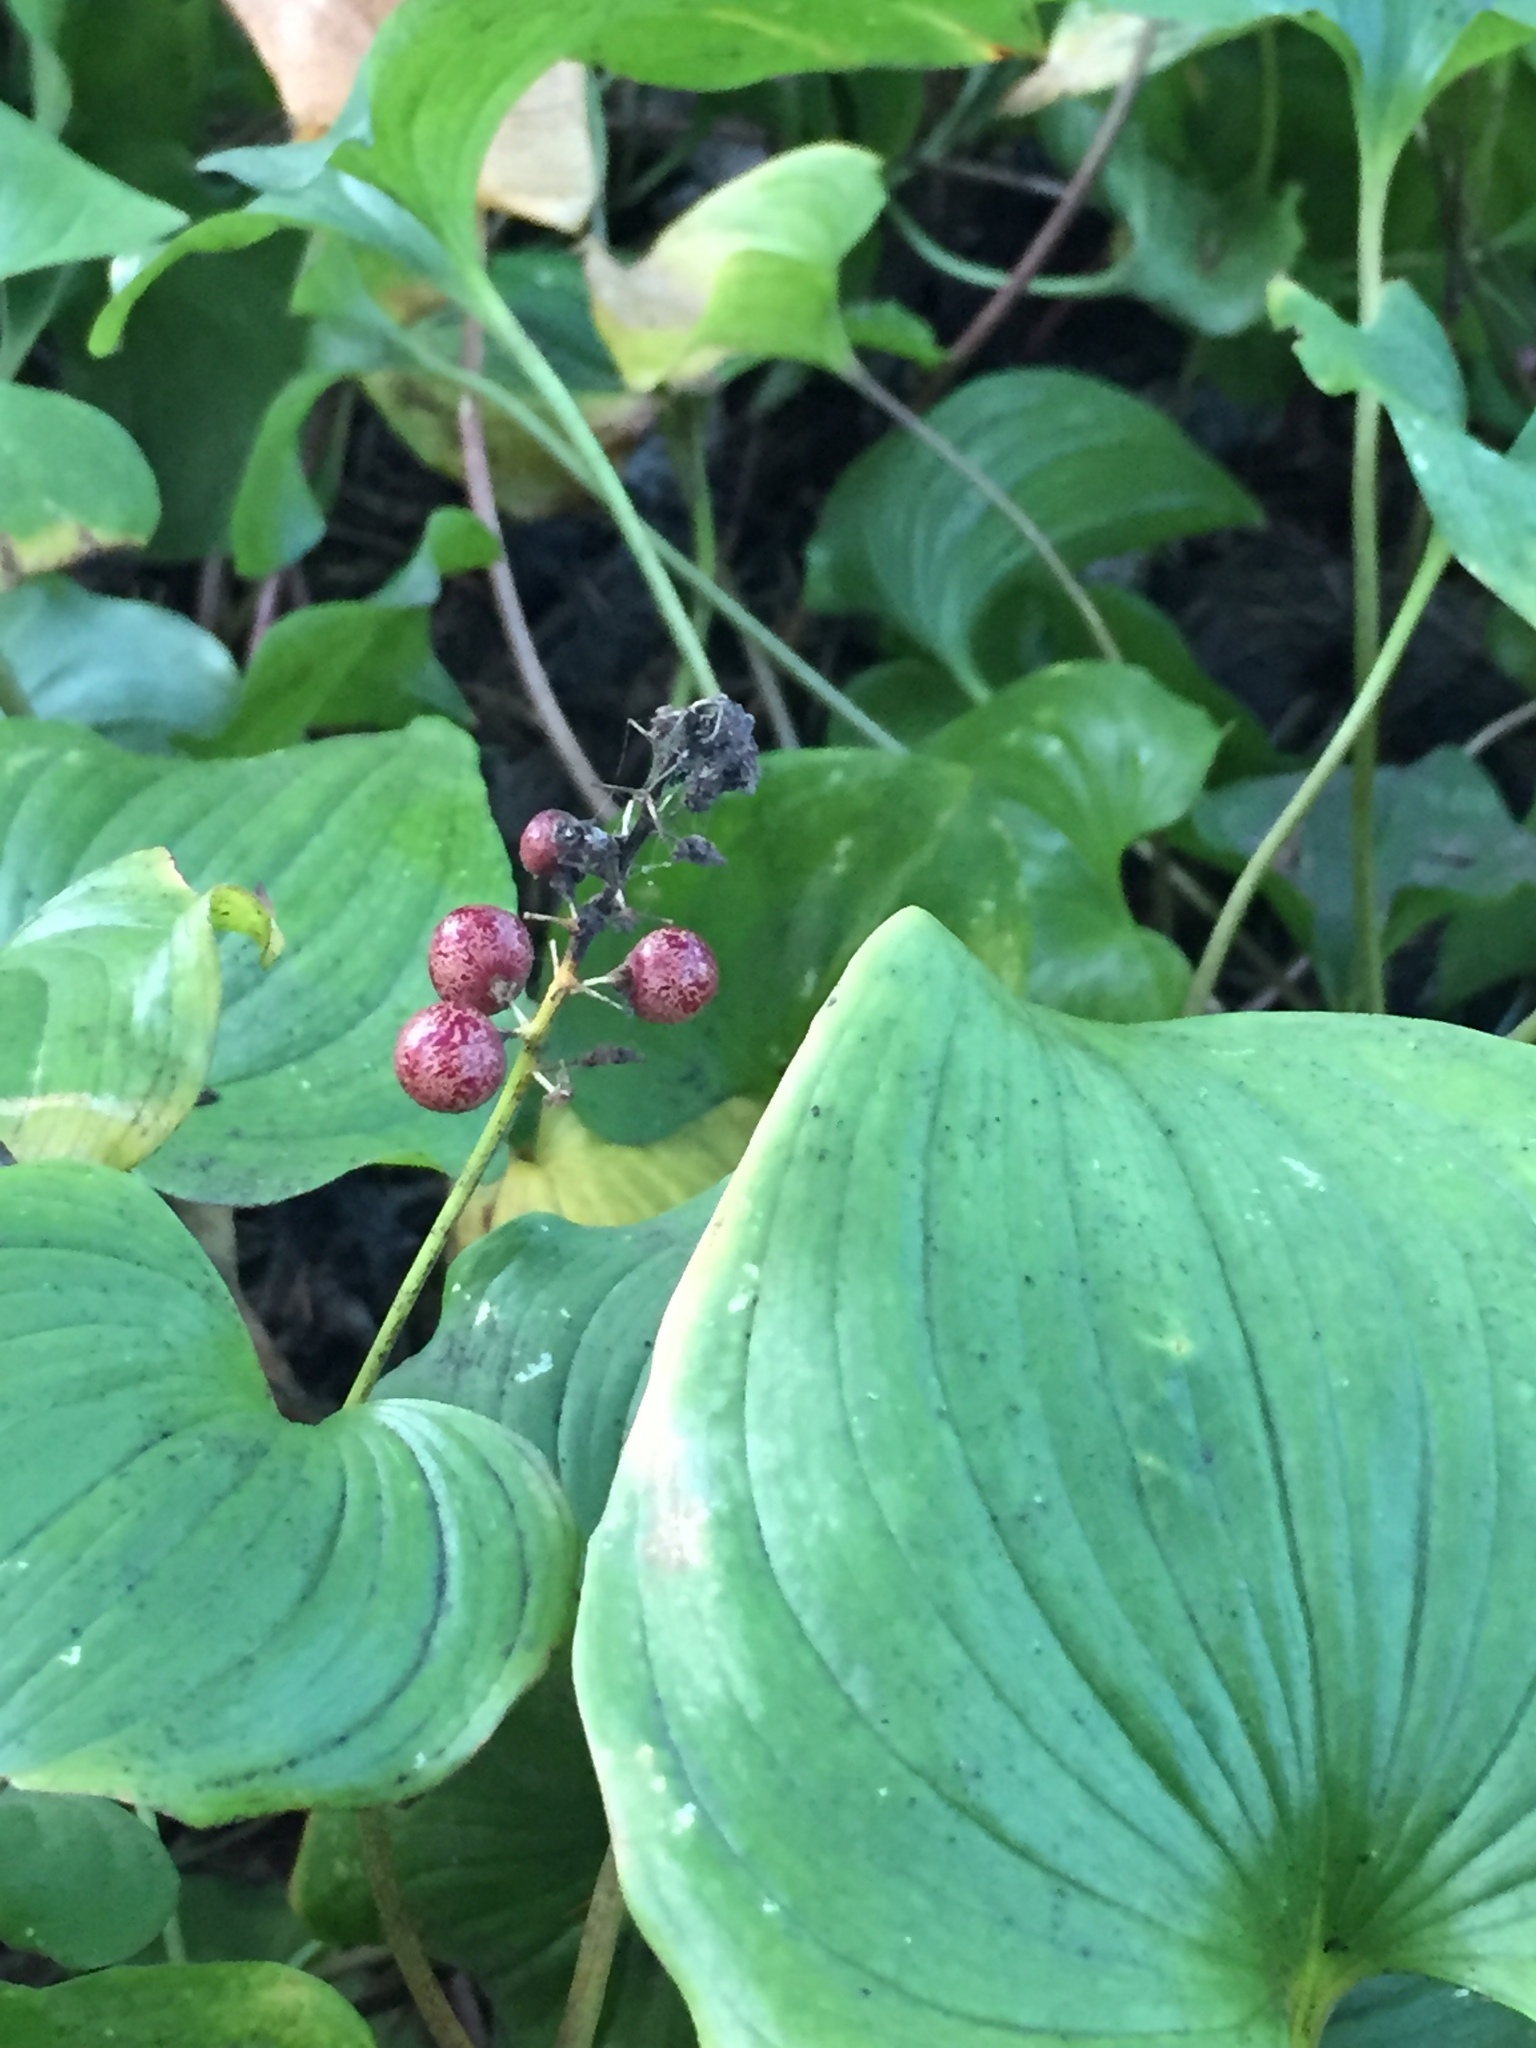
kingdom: Plantae
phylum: Tracheophyta
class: Liliopsida
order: Asparagales
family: Asparagaceae
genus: Maianthemum
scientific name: Maianthemum dilatatum
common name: False lily-of-the-valley
